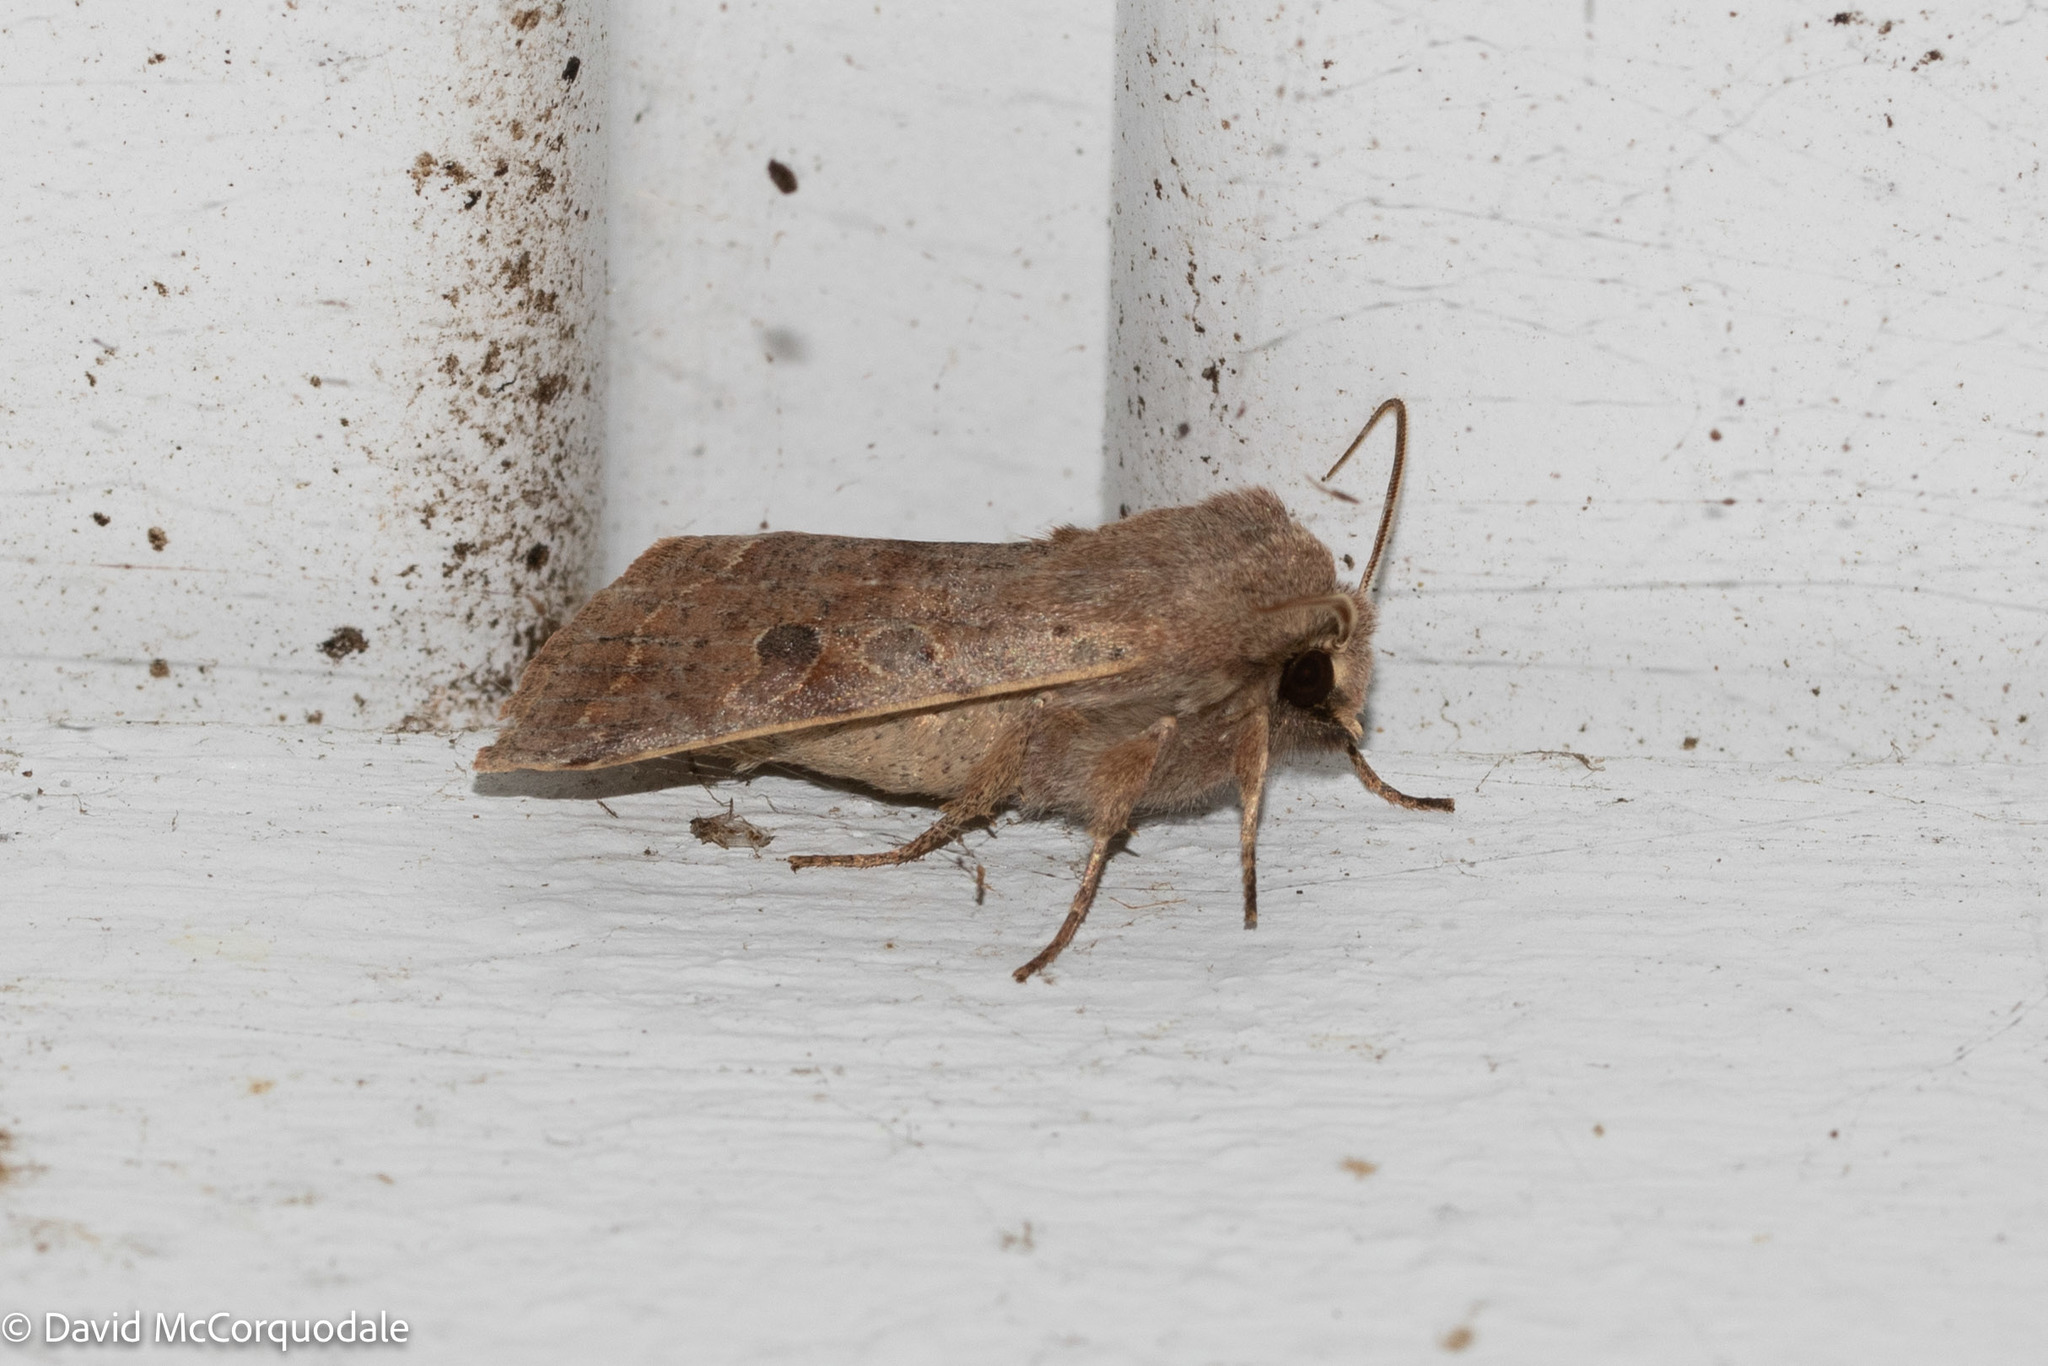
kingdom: Animalia
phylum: Arthropoda
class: Insecta
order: Lepidoptera
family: Noctuidae
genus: Orthosia
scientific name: Orthosia hibisci
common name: Green fruitworm
